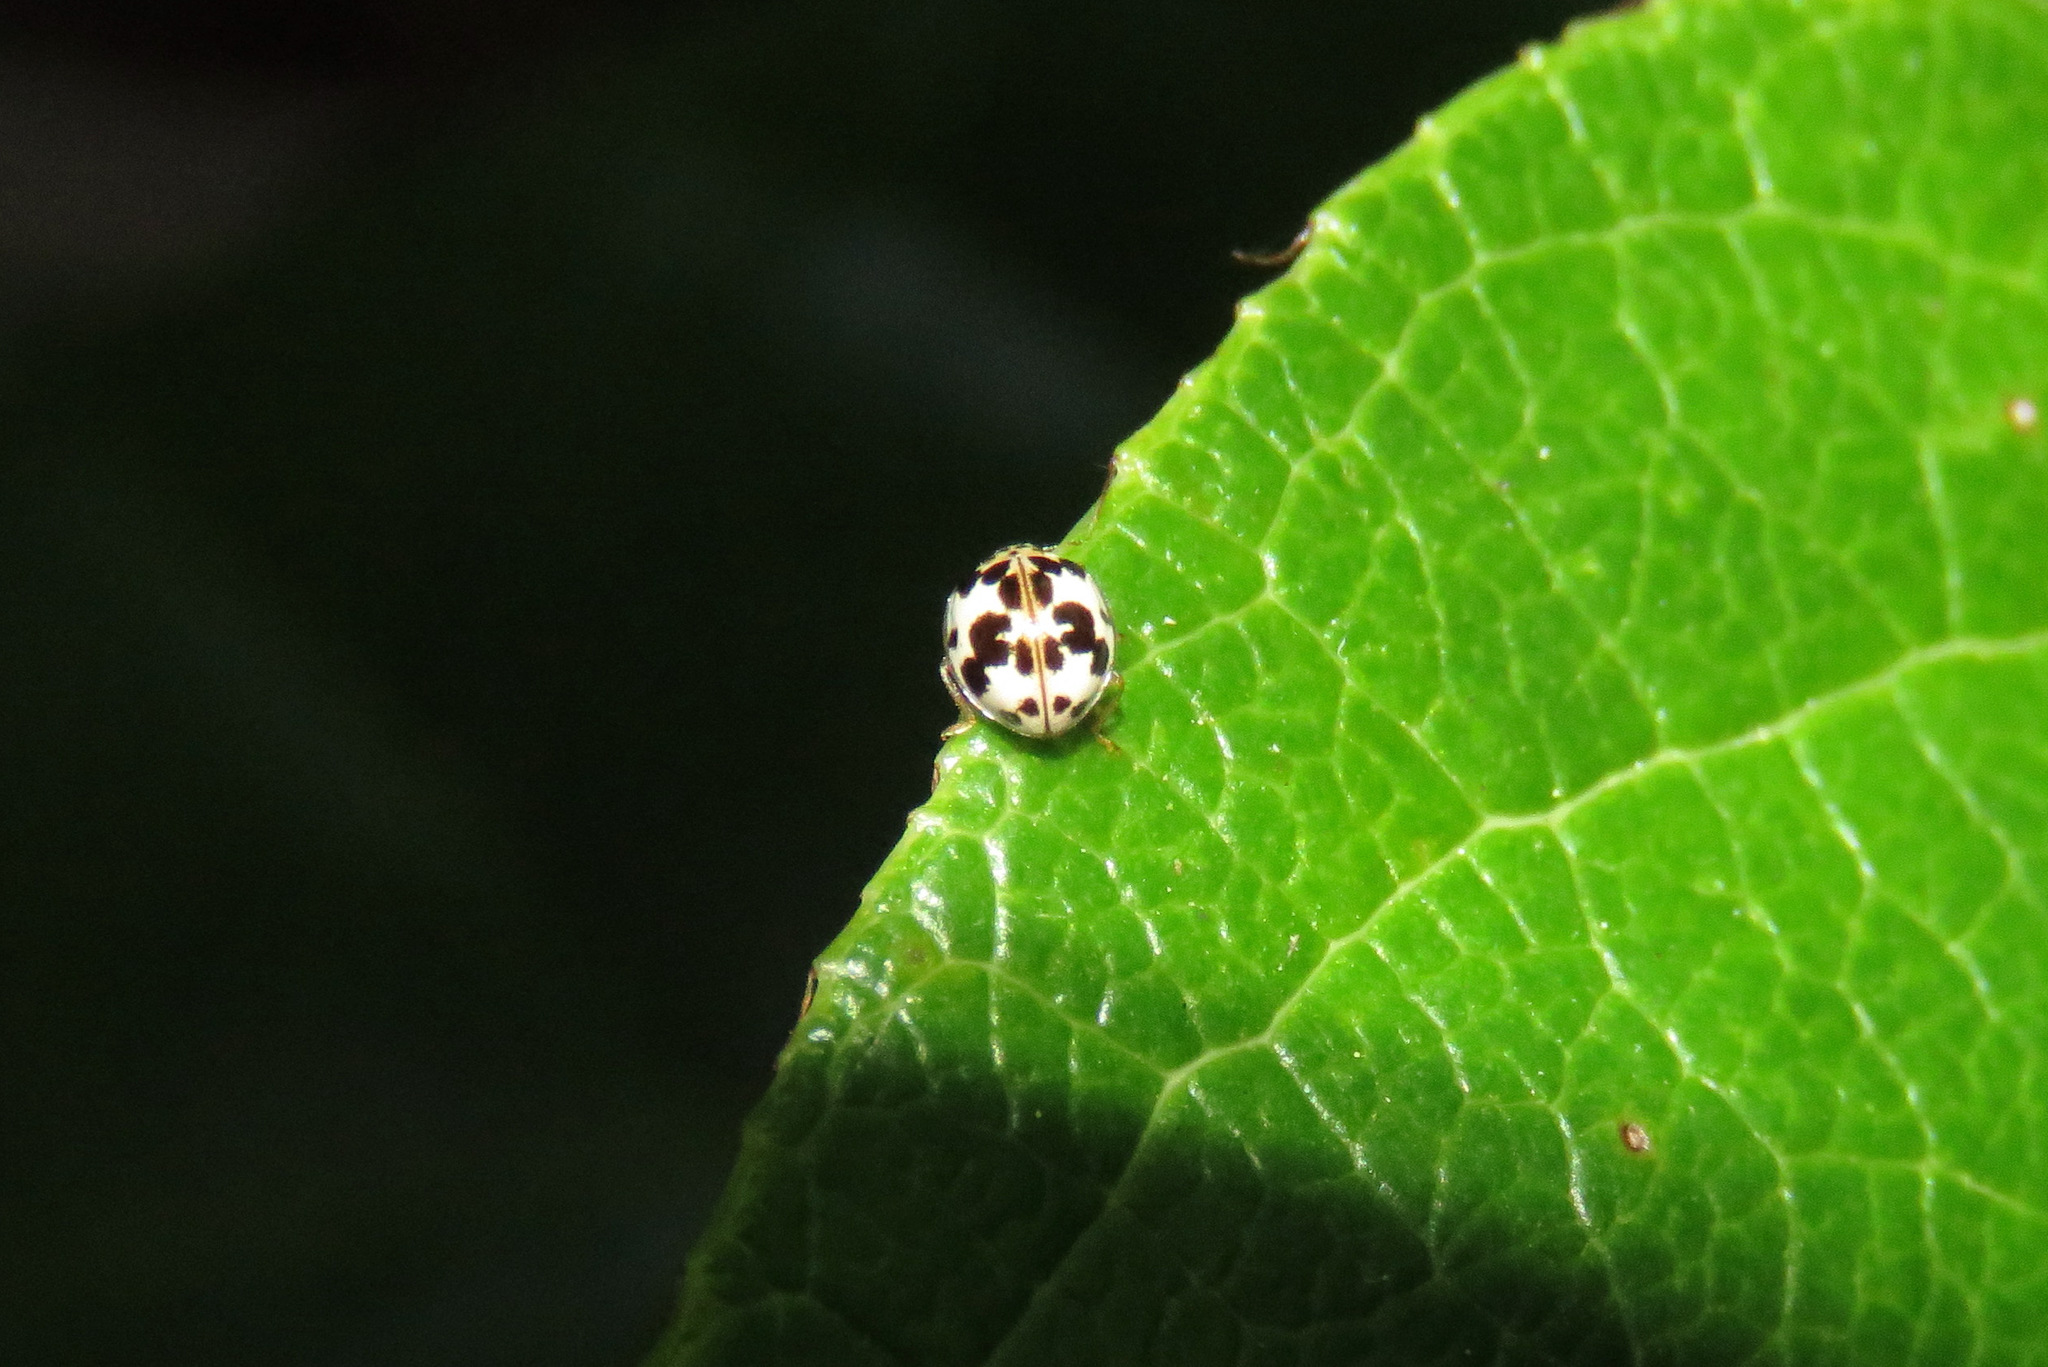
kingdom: Animalia
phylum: Arthropoda
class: Insecta
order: Coleoptera
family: Coccinellidae
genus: Psyllobora
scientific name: Psyllobora borealis
